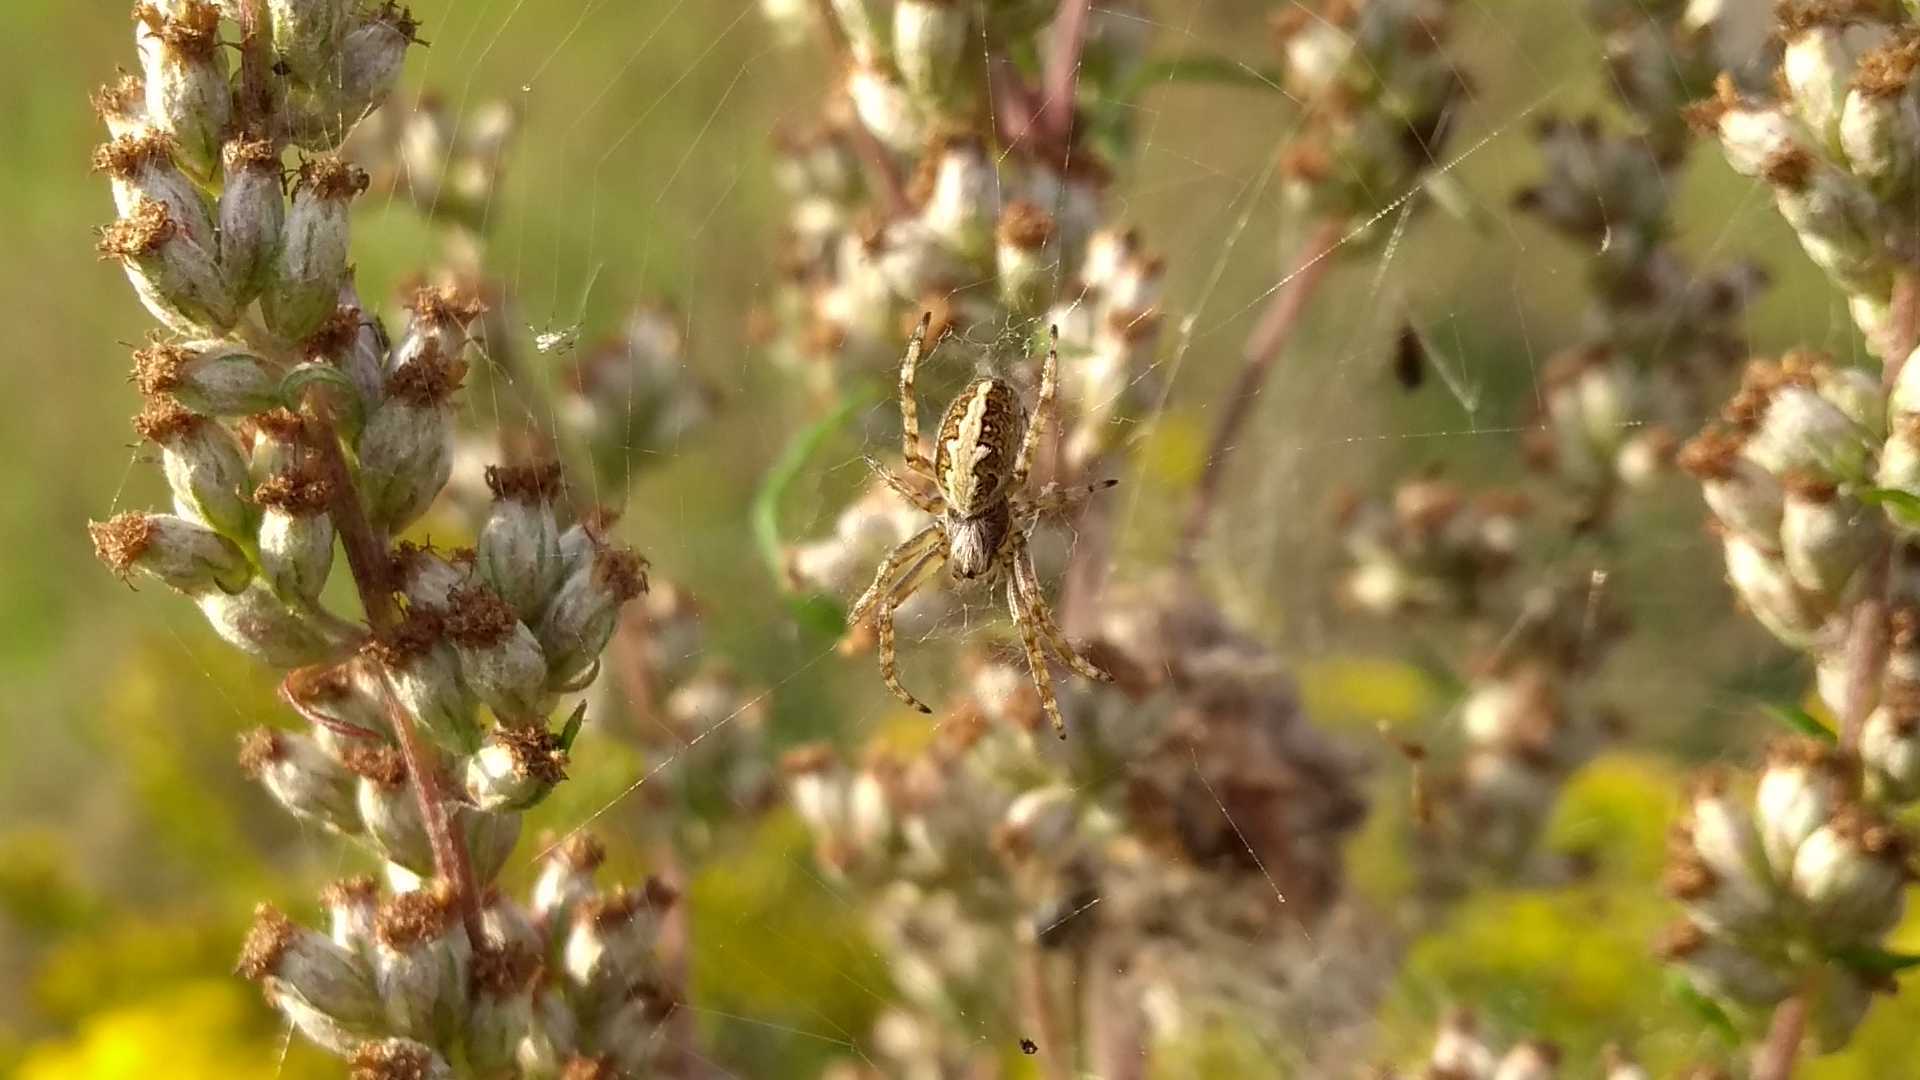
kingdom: Animalia
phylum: Arthropoda
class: Arachnida
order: Araneae
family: Araneidae
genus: Aculepeira
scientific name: Aculepeira ceropegia
